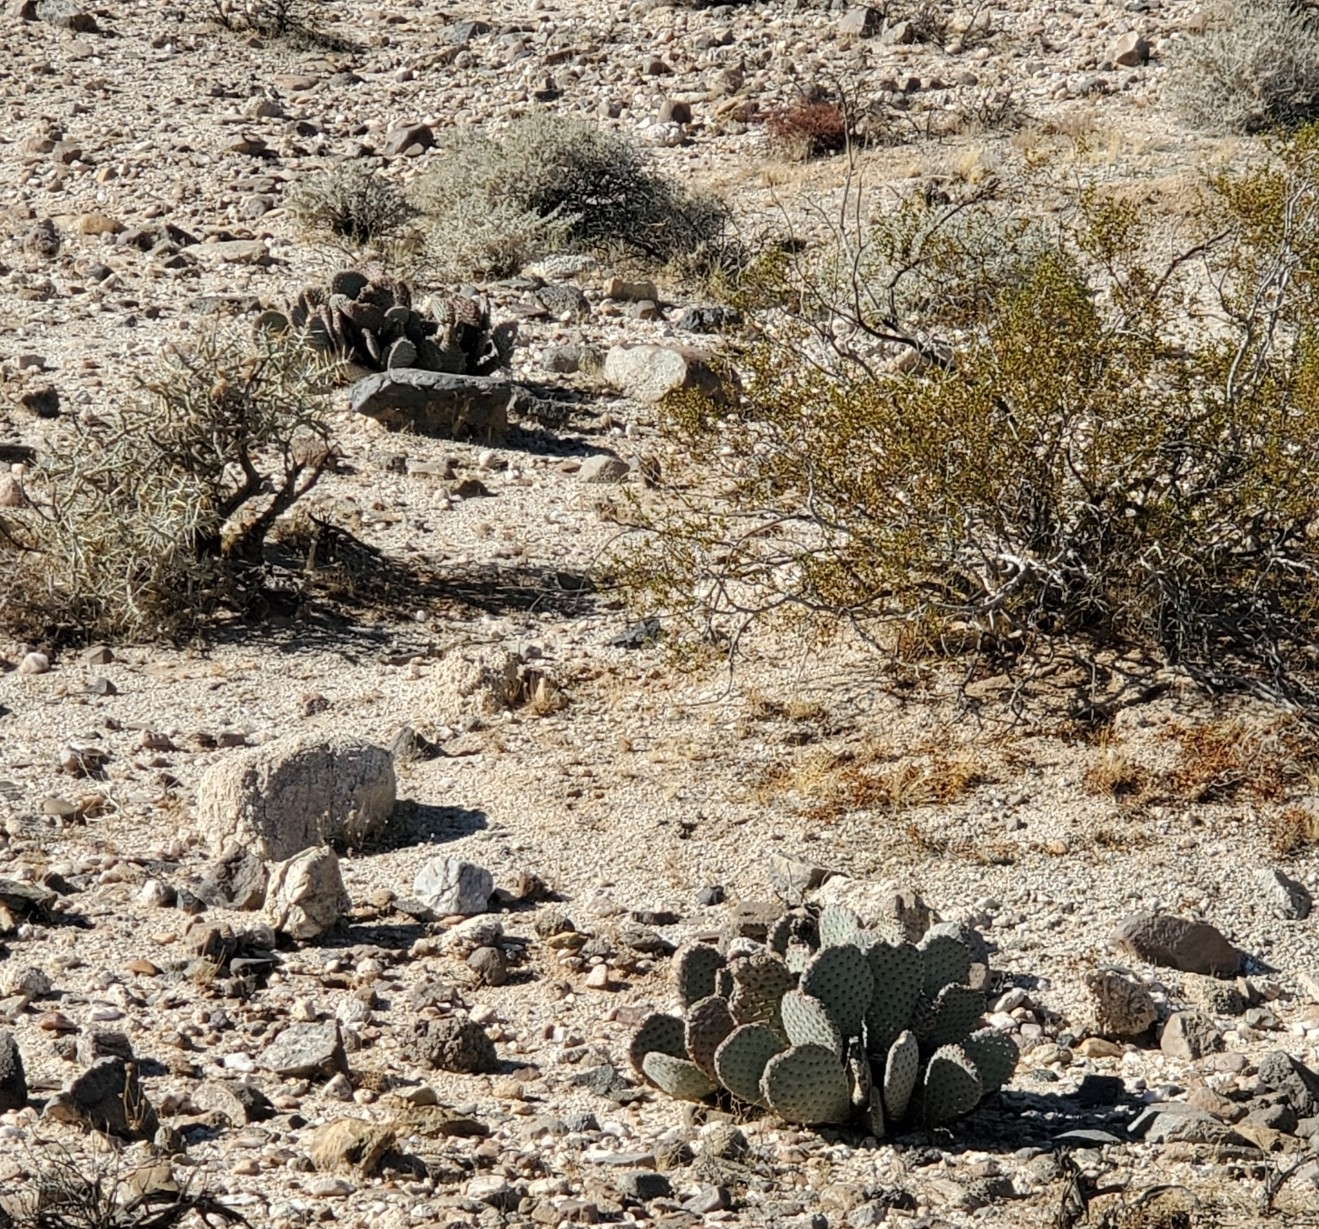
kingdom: Plantae
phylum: Tracheophyta
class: Magnoliopsida
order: Caryophyllales
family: Cactaceae
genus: Opuntia
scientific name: Opuntia basilaris
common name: Beavertail prickly-pear
